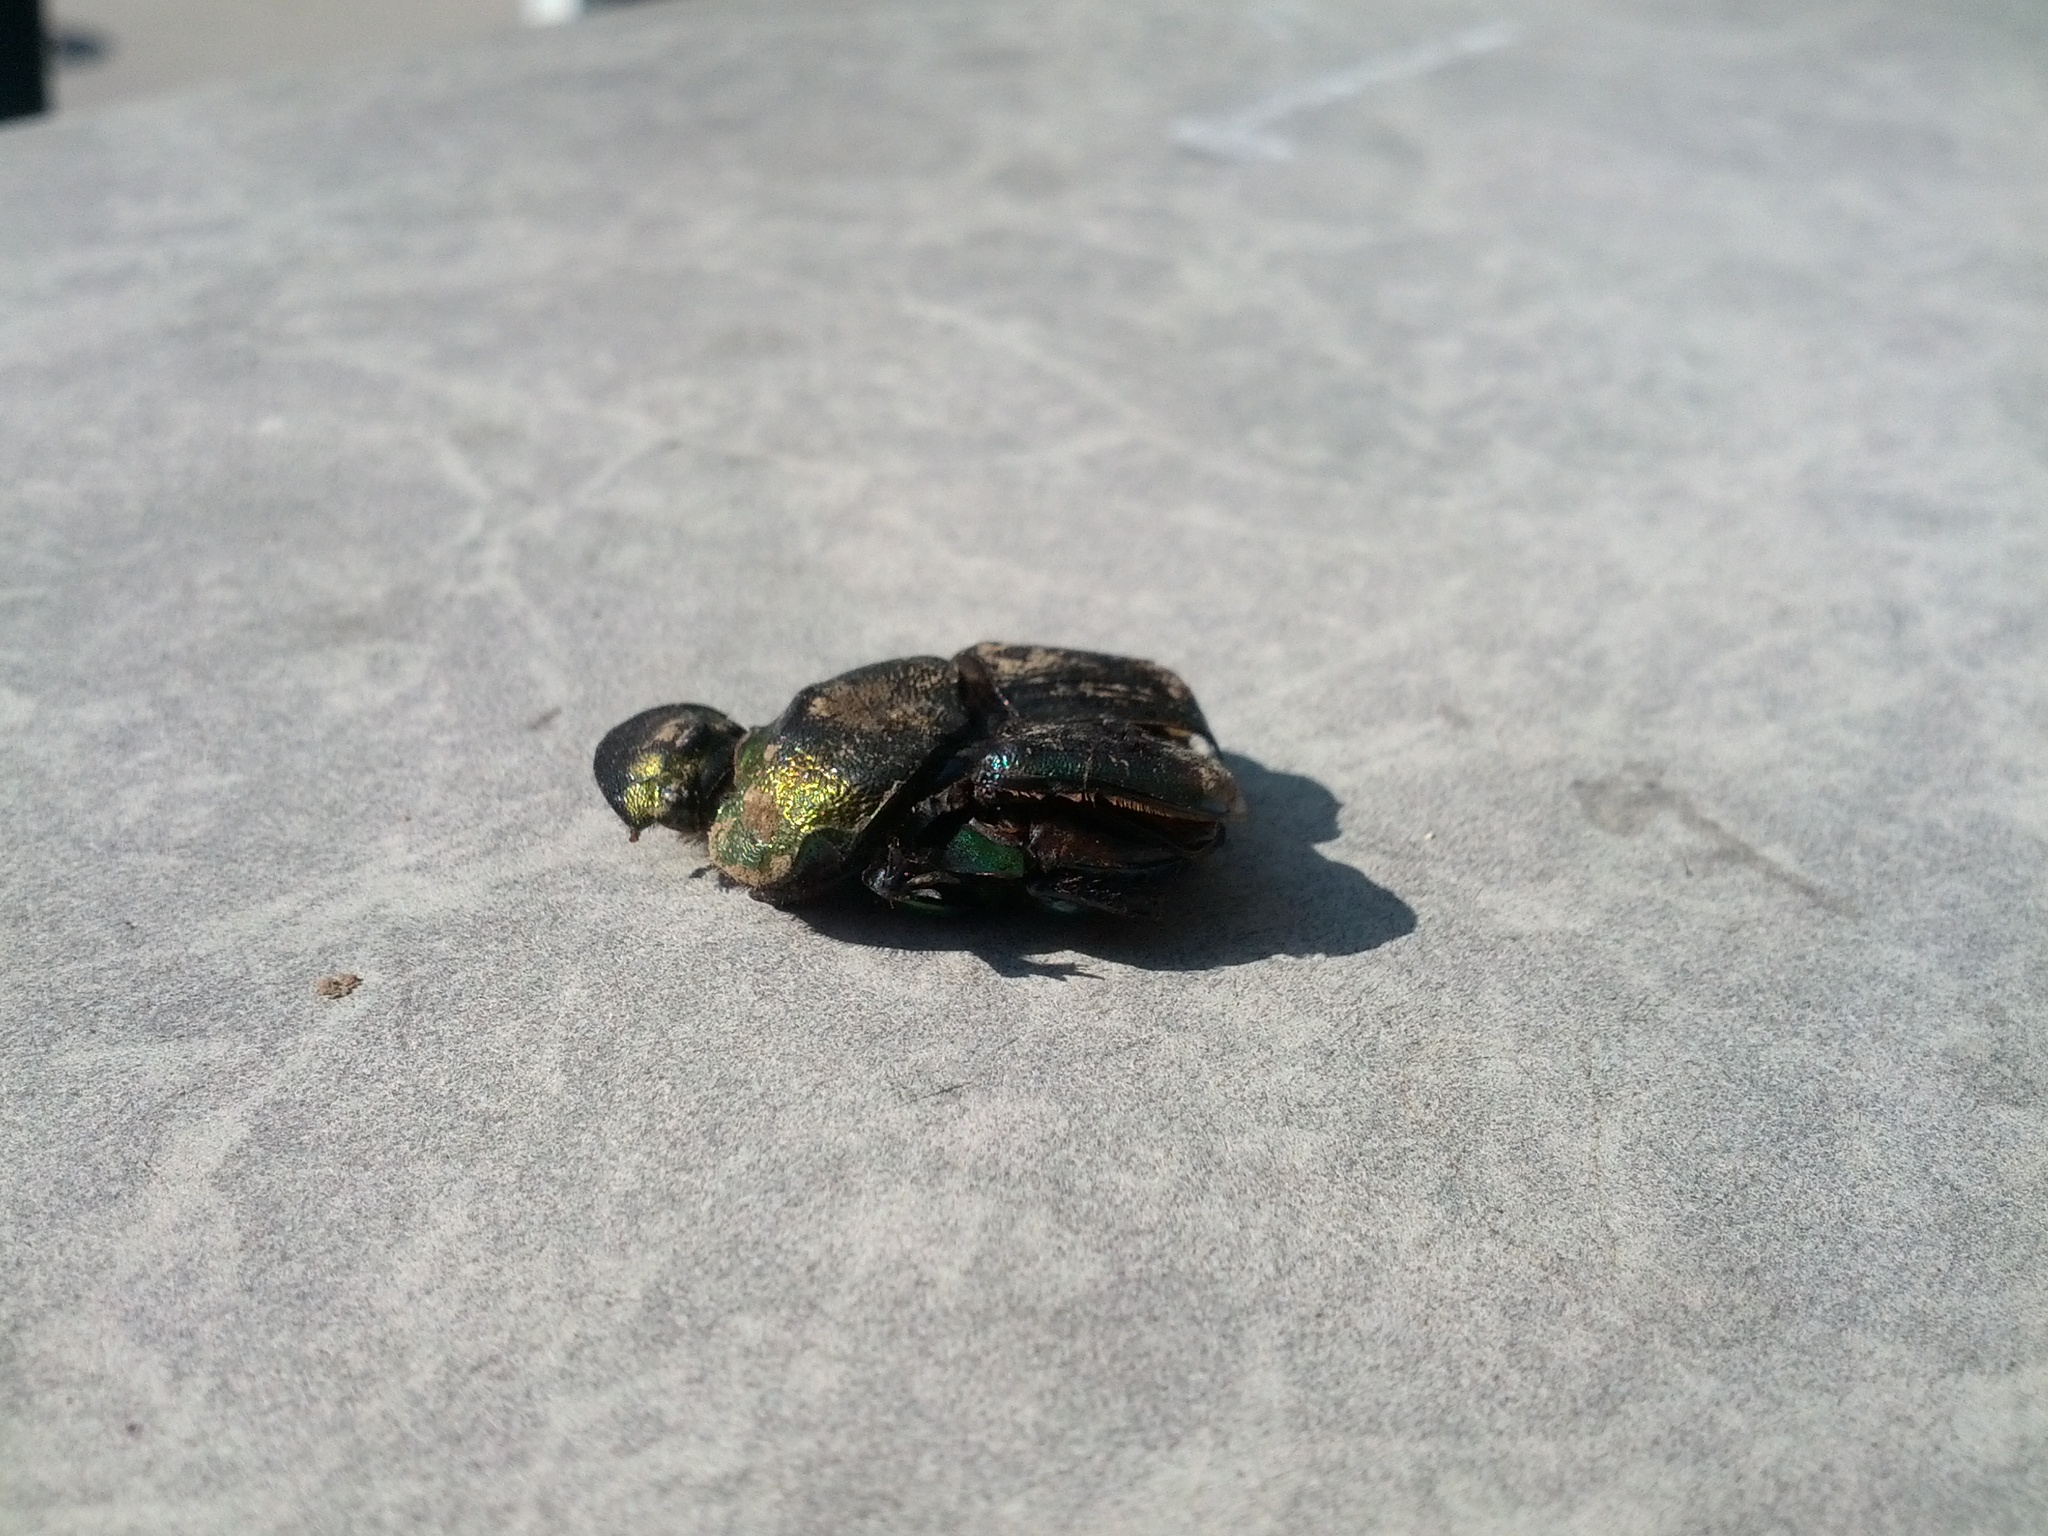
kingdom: Animalia
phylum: Arthropoda
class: Insecta
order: Coleoptera
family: Scarabaeidae
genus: Phanaeus
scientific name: Phanaeus vindex
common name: Rainbow scarab
